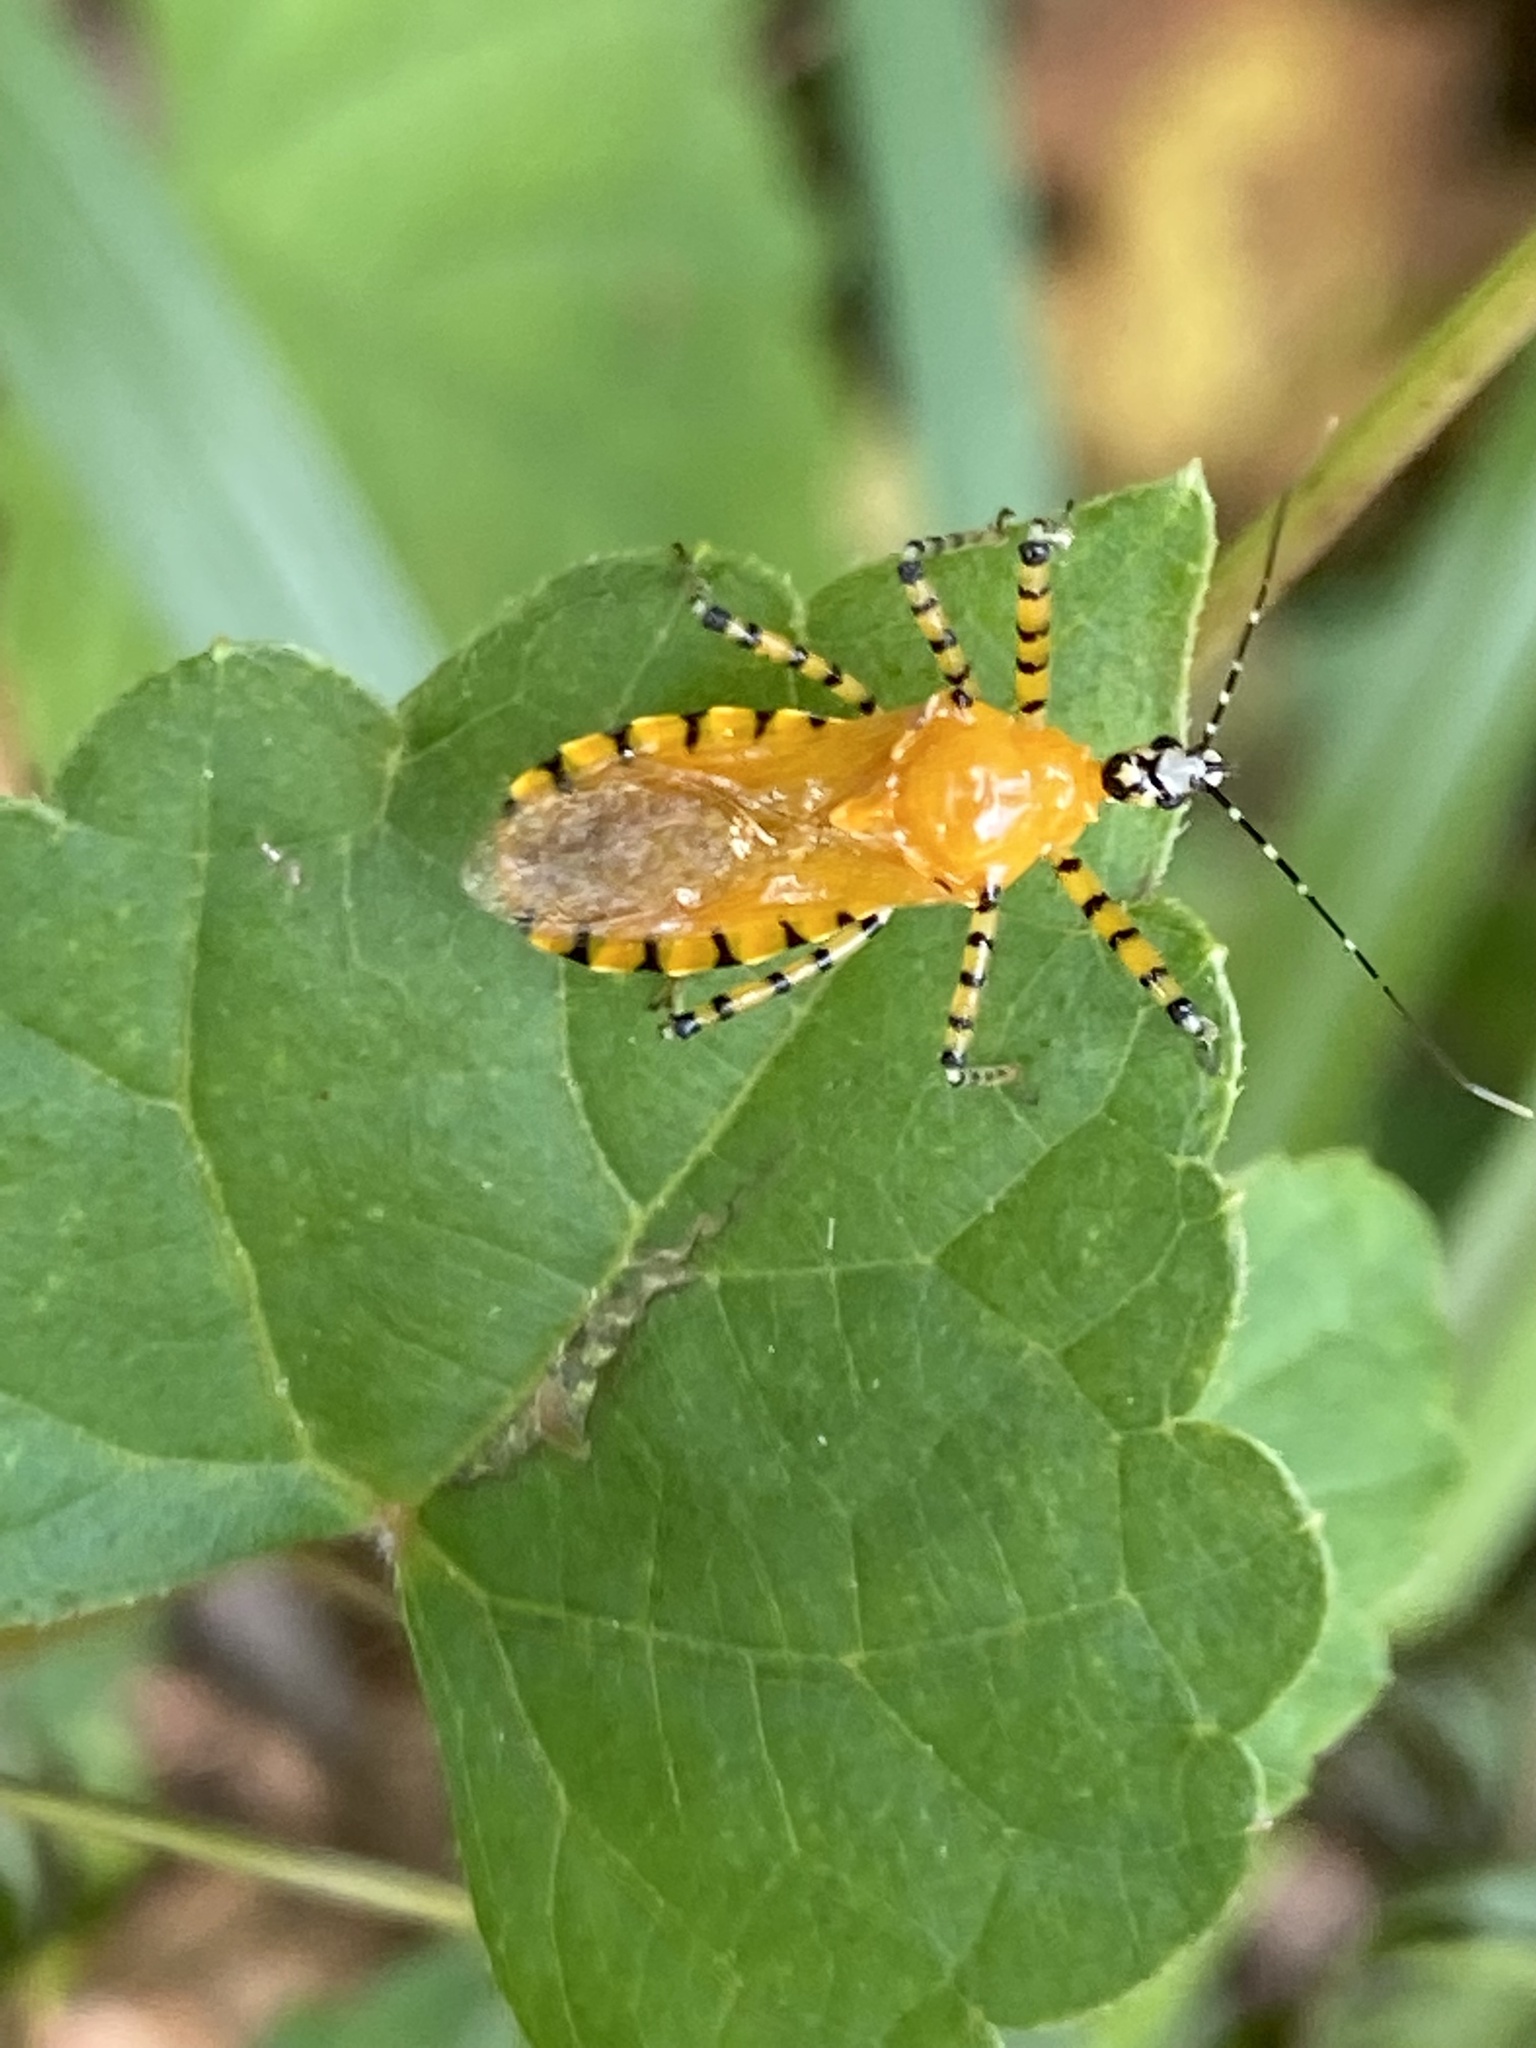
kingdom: Animalia
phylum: Arthropoda
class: Insecta
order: Hemiptera
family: Reduviidae
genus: Pselliopus
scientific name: Pselliopus barberi
